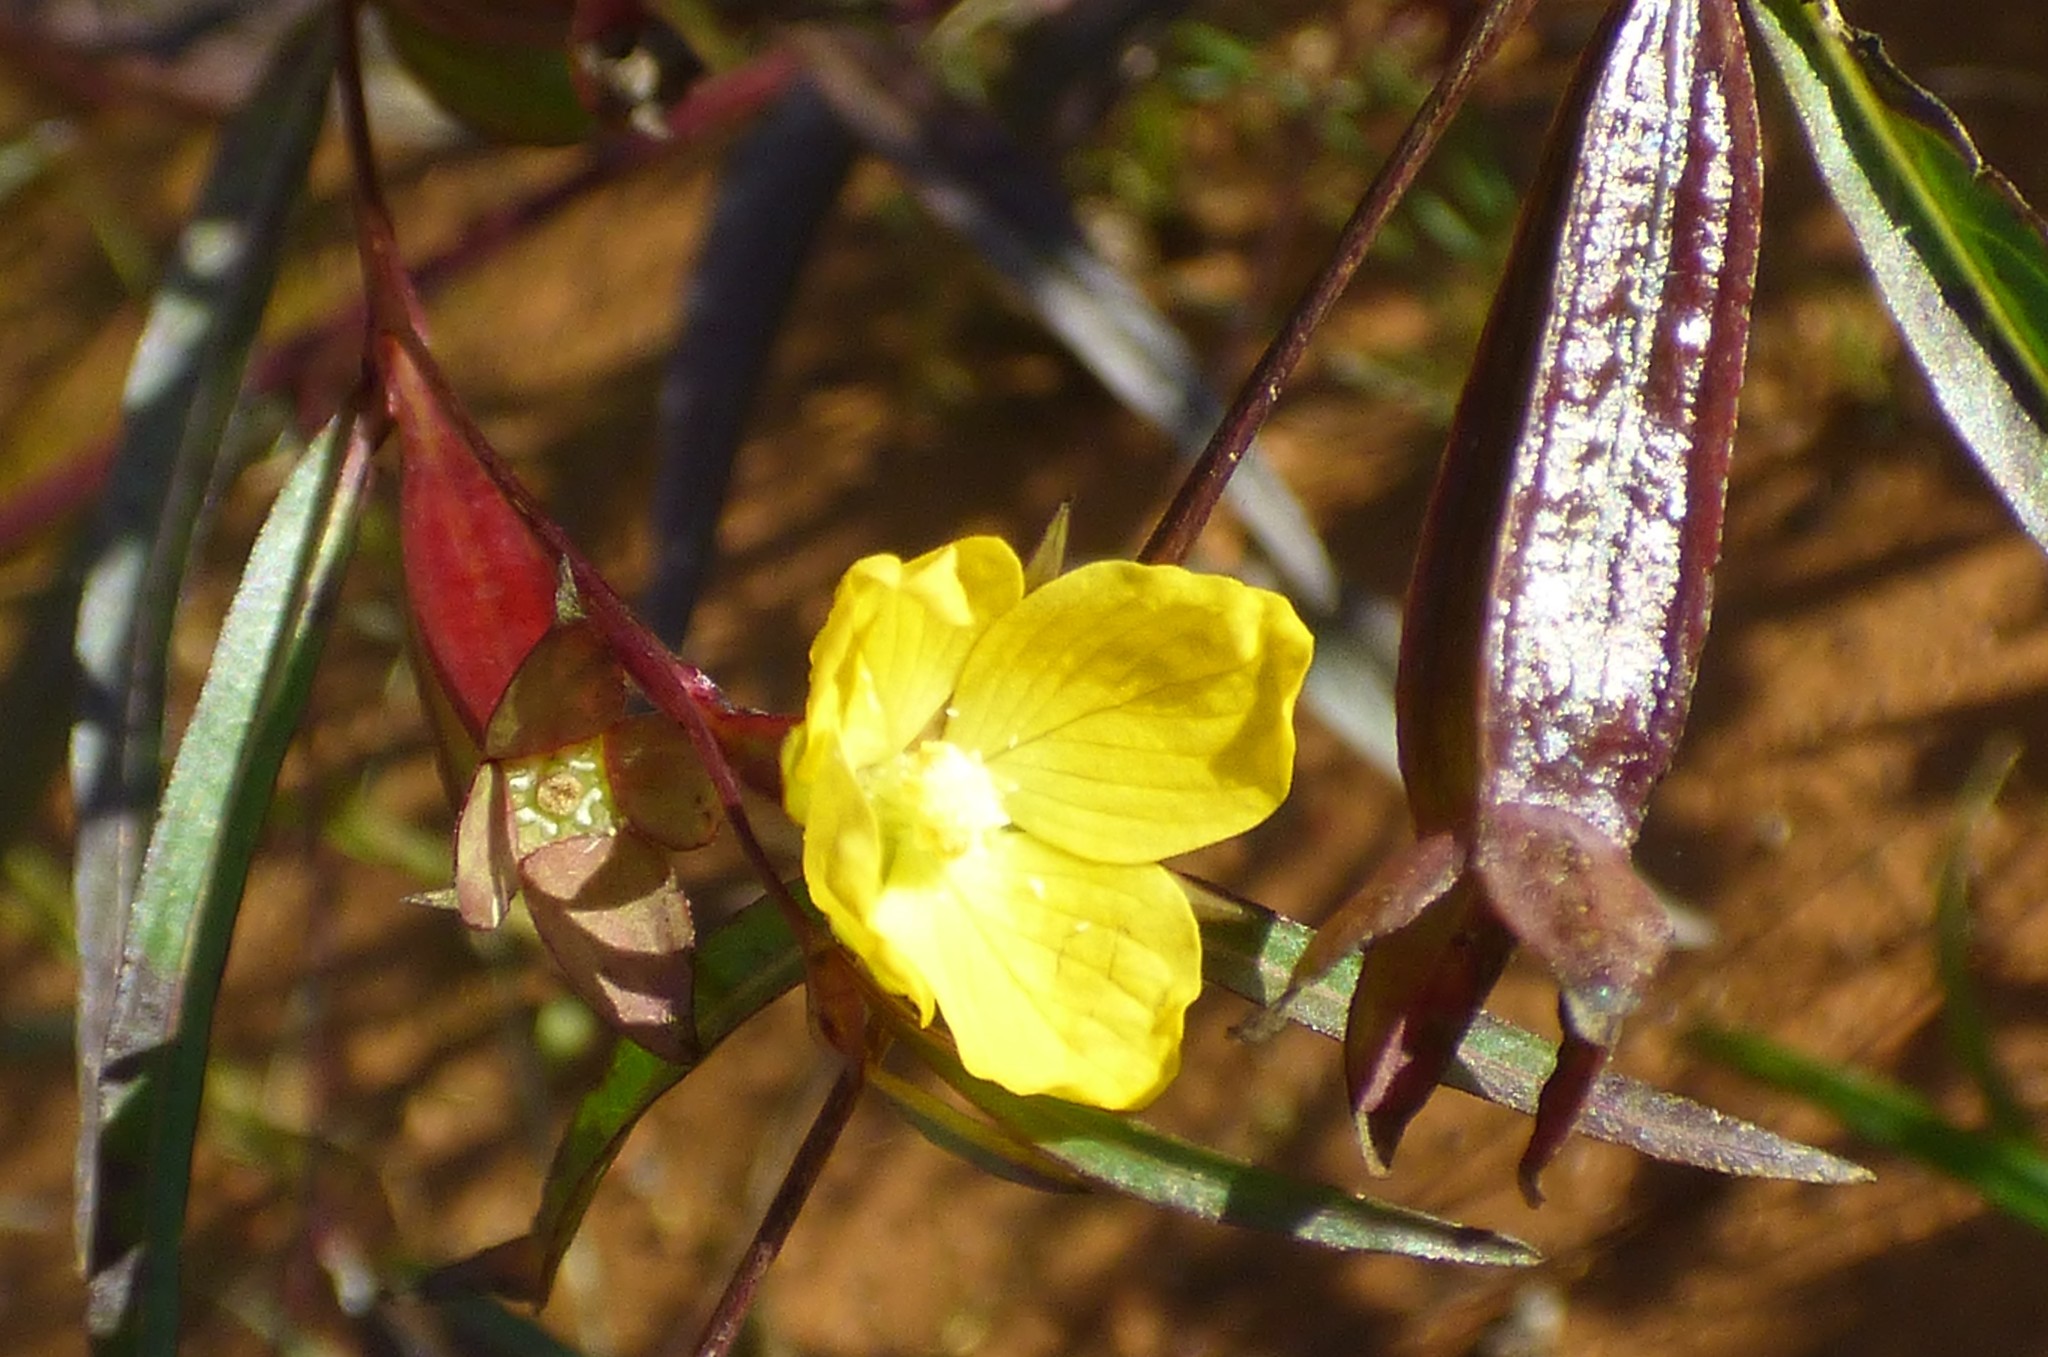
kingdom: Plantae
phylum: Tracheophyta
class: Magnoliopsida
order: Myrtales
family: Onagraceae
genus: Ludwigia
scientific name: Ludwigia alternifolia
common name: Rattlebox
